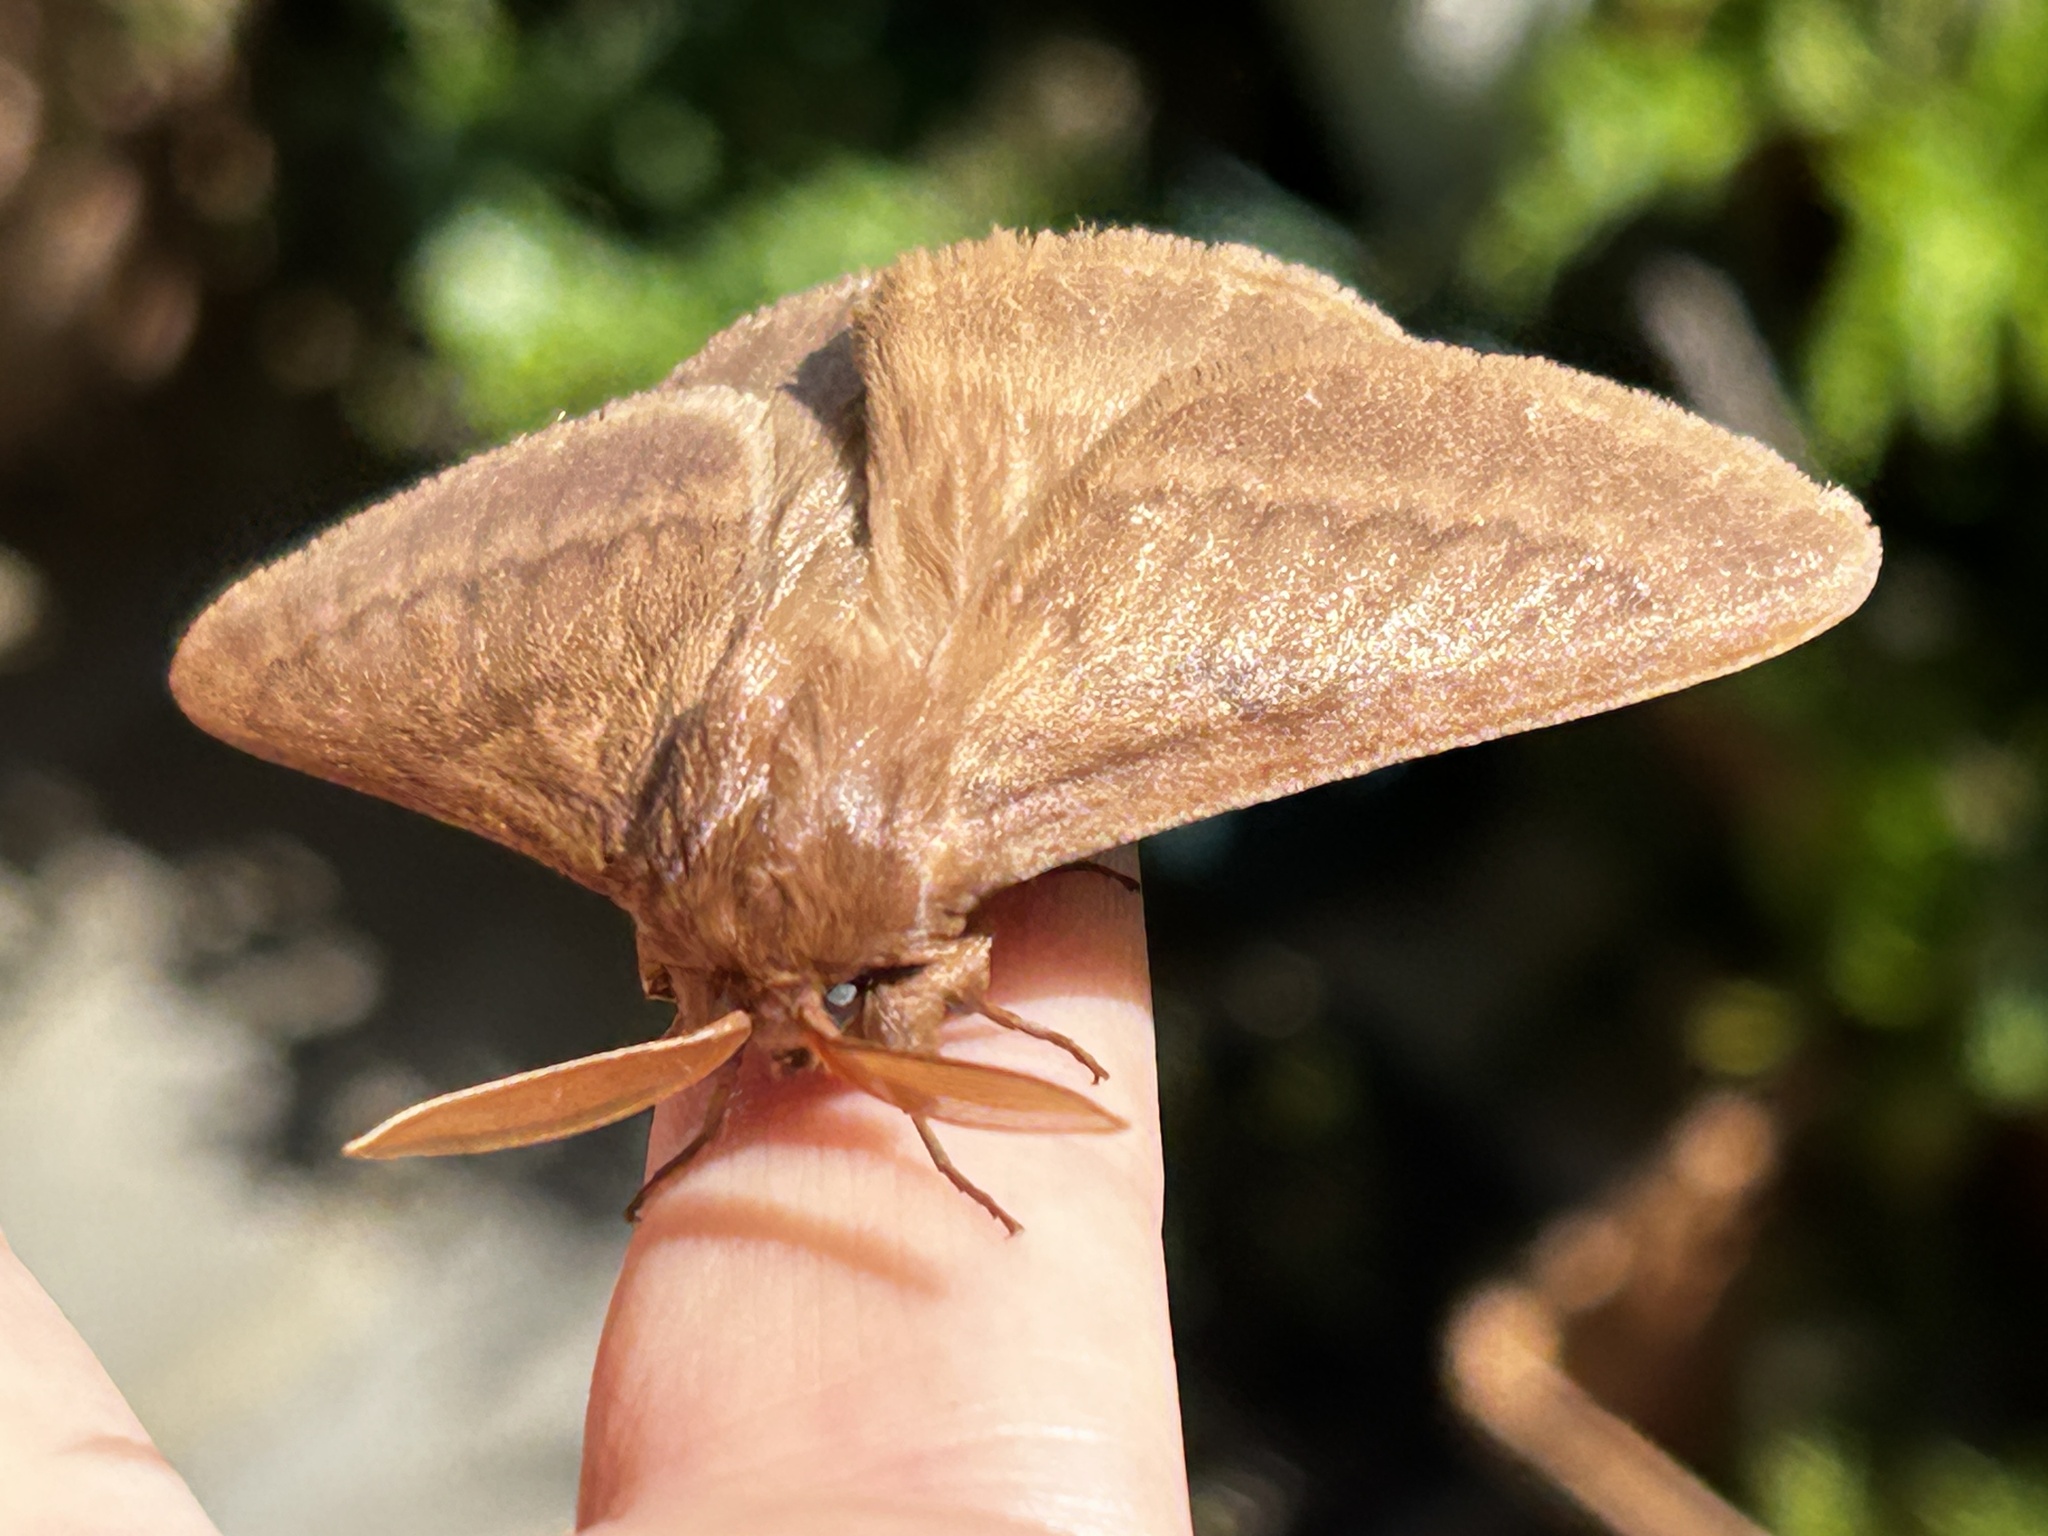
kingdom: Animalia
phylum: Arthropoda
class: Insecta
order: Lepidoptera
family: Eupterotidae
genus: Phyllalia
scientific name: Phyllalia thunbergii
